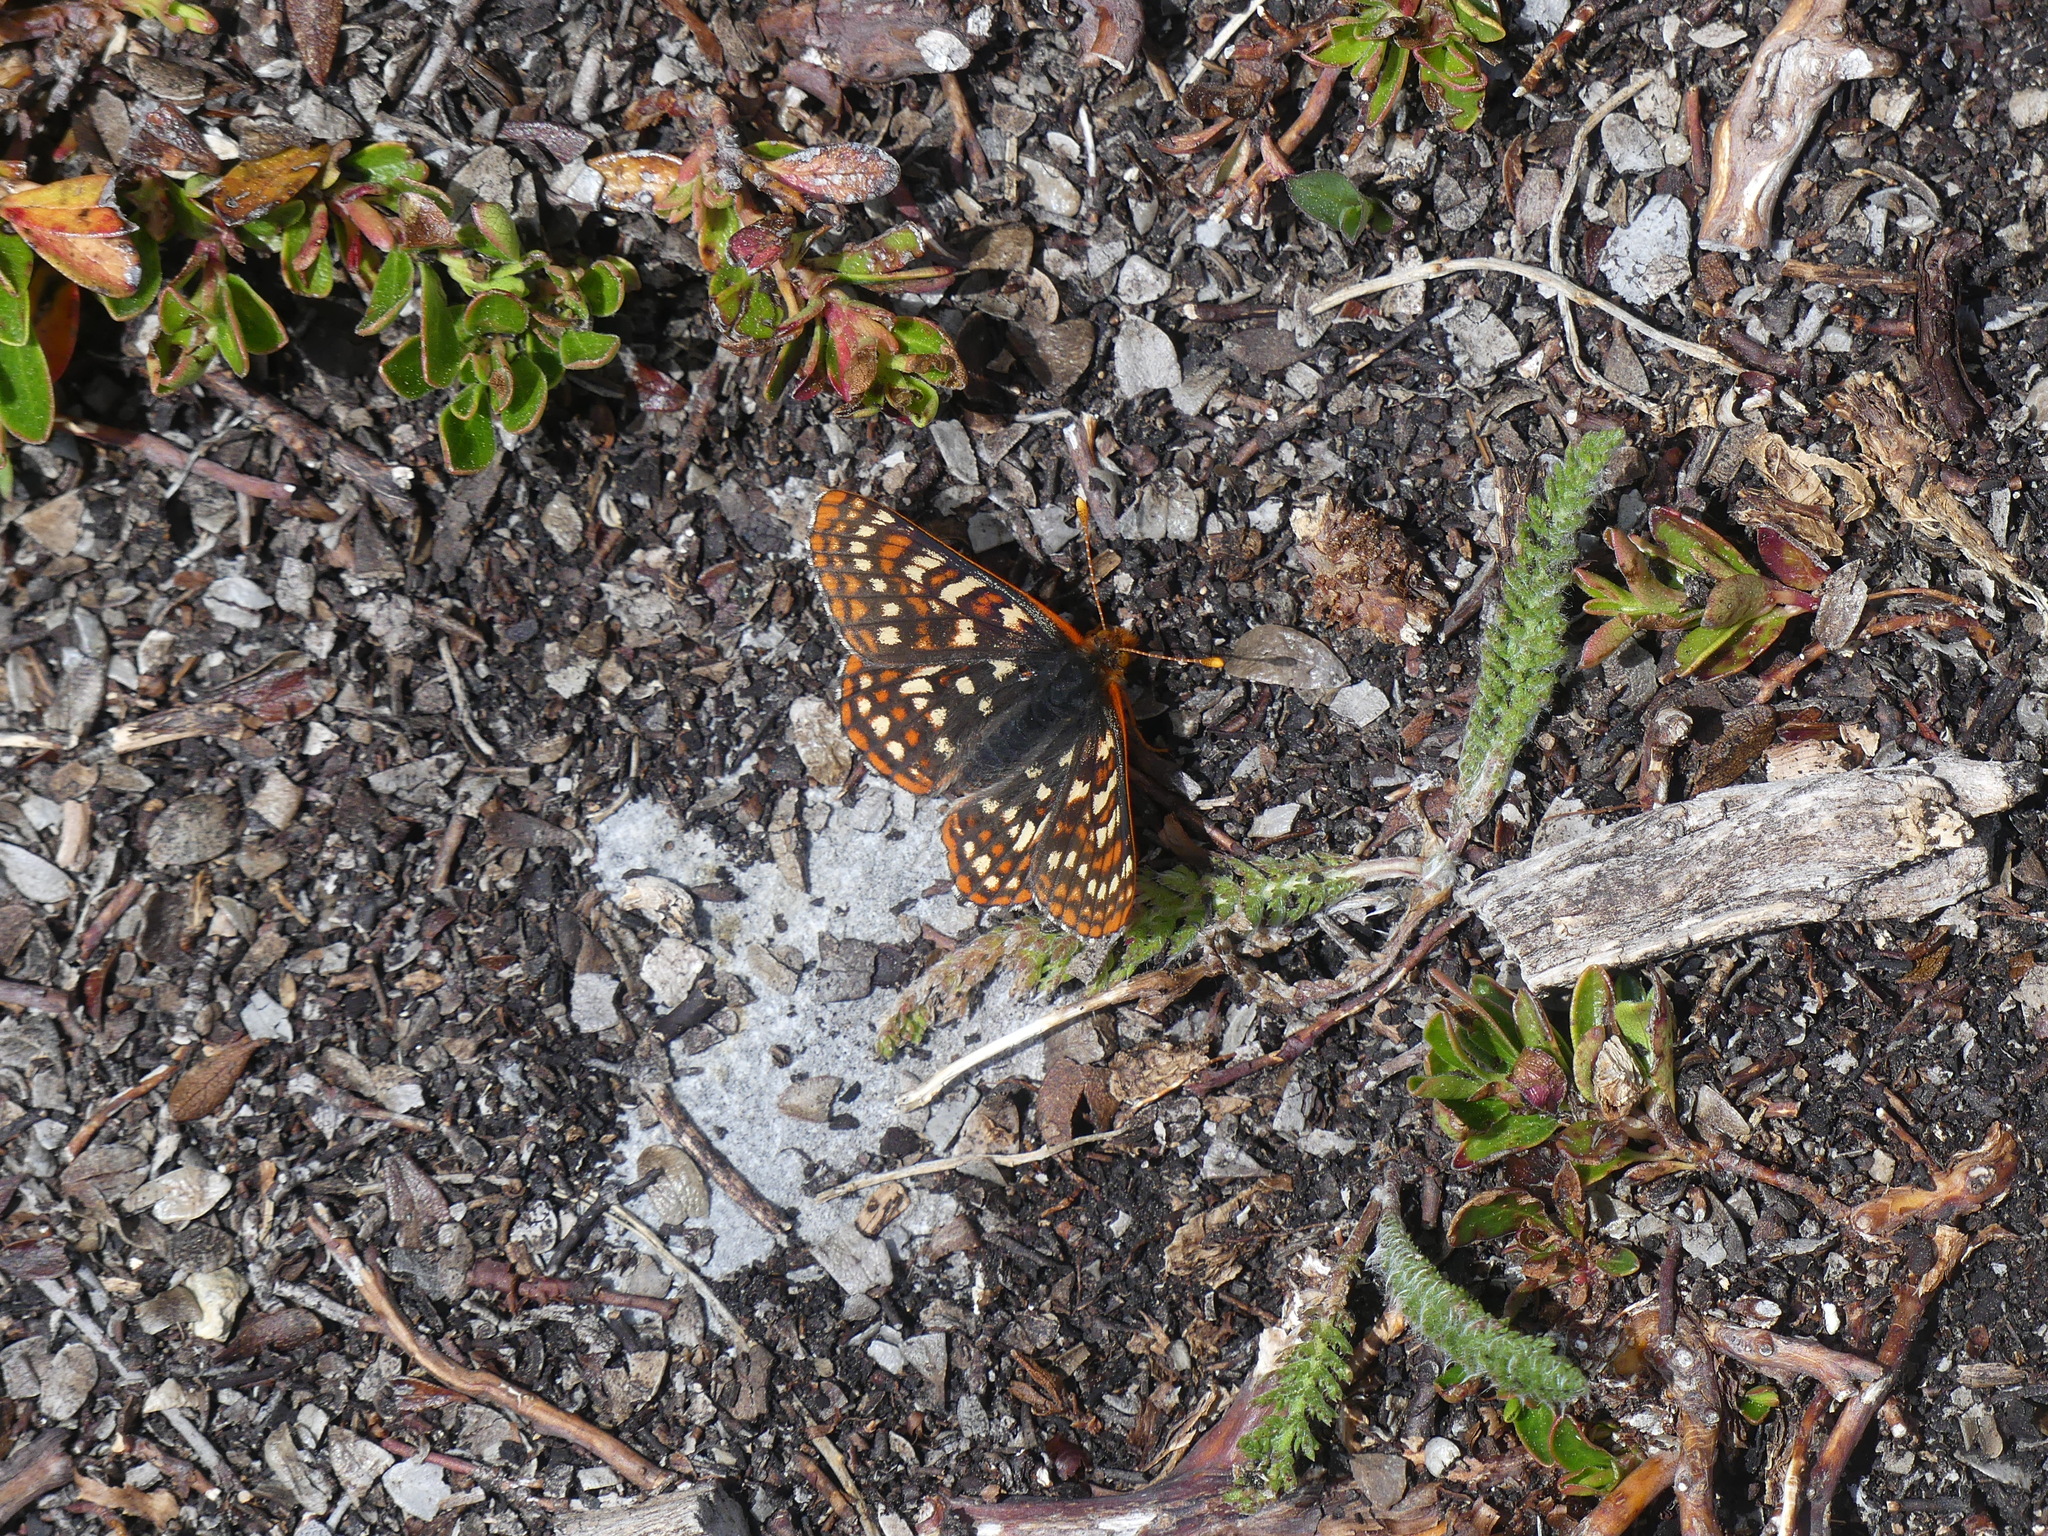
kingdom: Animalia
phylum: Arthropoda
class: Insecta
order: Lepidoptera
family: Nymphalidae
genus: Occidryas
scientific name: Occidryas anicia
